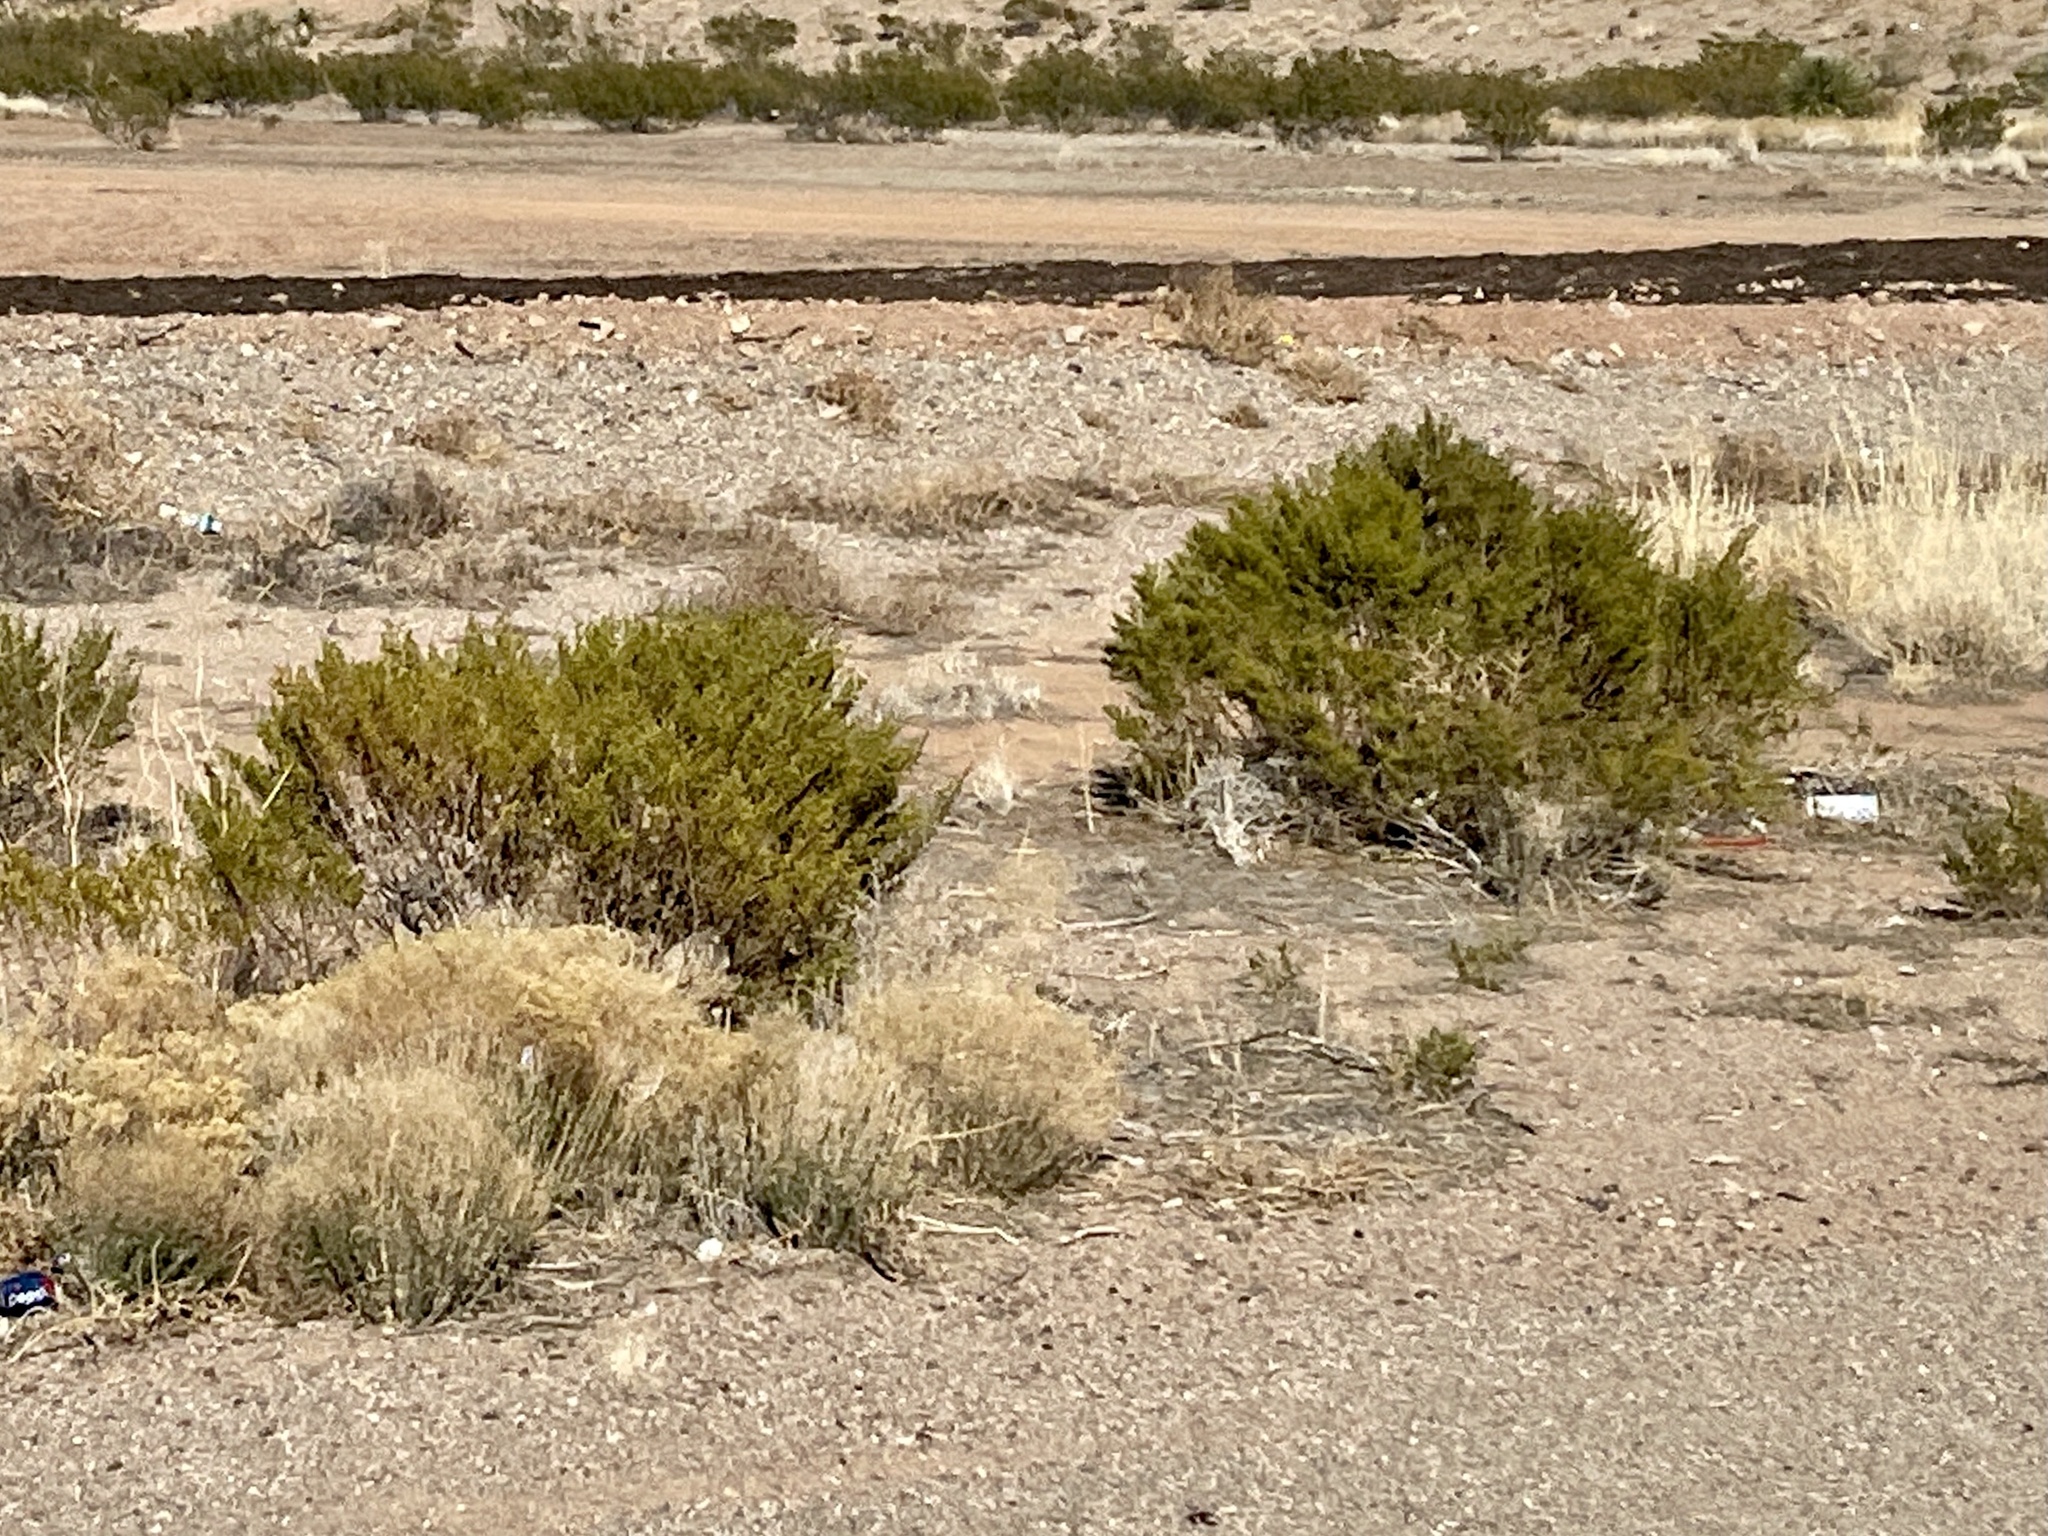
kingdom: Plantae
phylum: Tracheophyta
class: Magnoliopsida
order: Zygophyllales
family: Zygophyllaceae
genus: Larrea
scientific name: Larrea tridentata
